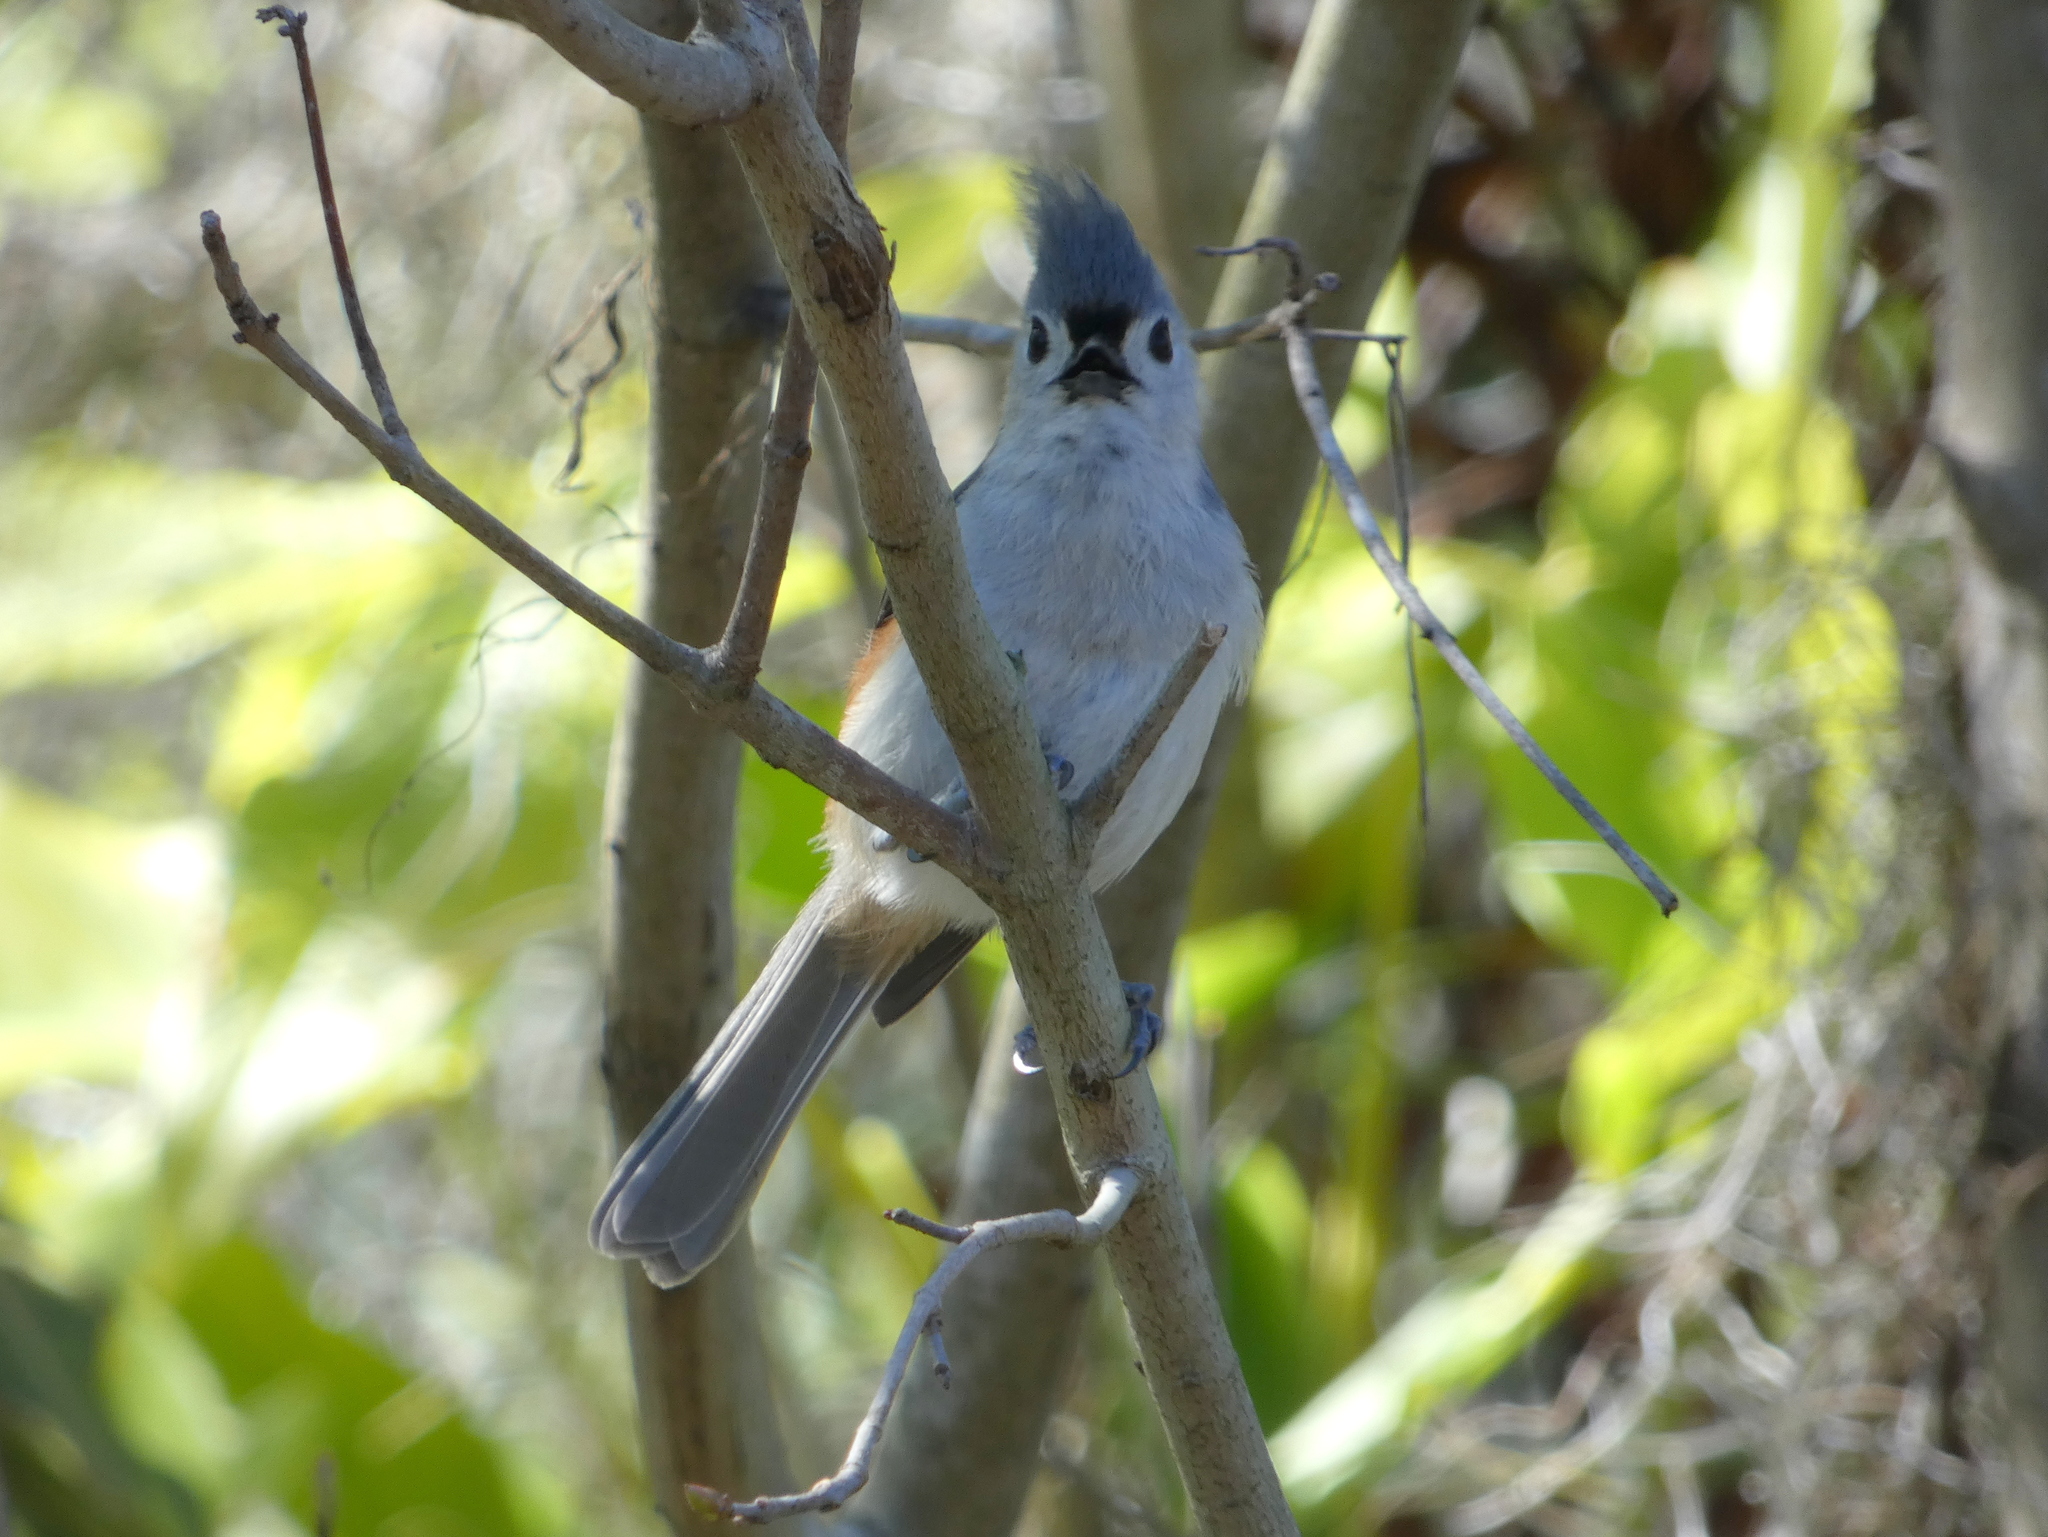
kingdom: Animalia
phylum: Chordata
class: Aves
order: Passeriformes
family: Paridae
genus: Baeolophus
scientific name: Baeolophus bicolor
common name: Tufted titmouse
